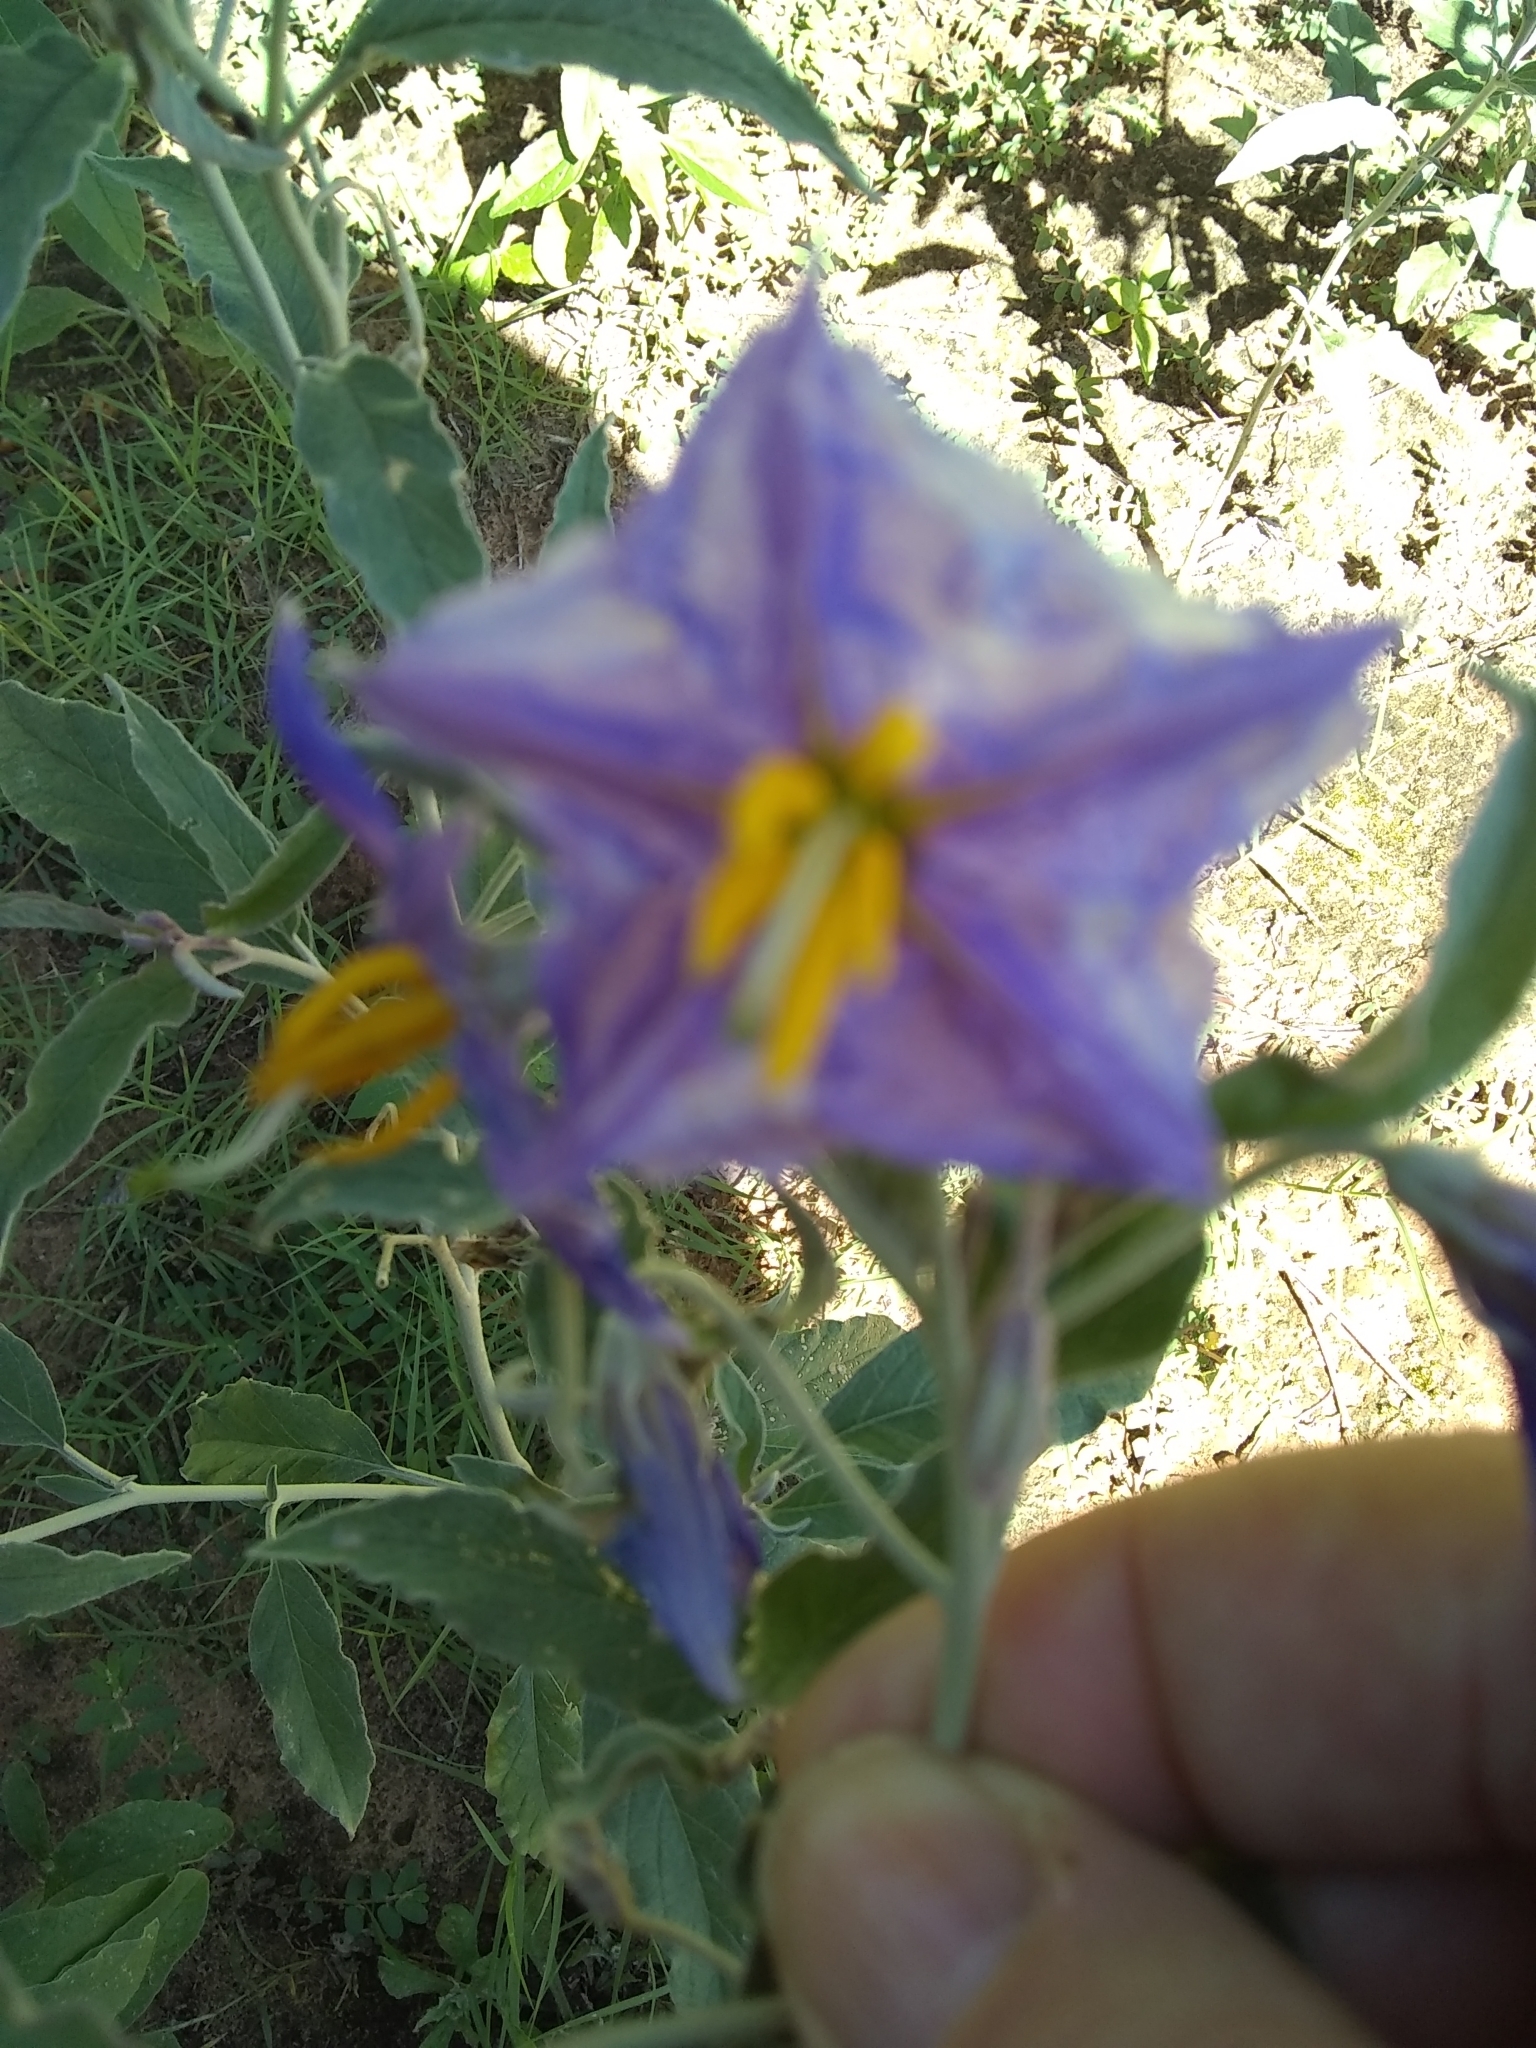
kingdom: Plantae
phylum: Tracheophyta
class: Magnoliopsida
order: Solanales
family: Solanaceae
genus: Solanum
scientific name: Solanum elaeagnifolium
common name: Silverleaf nightshade
